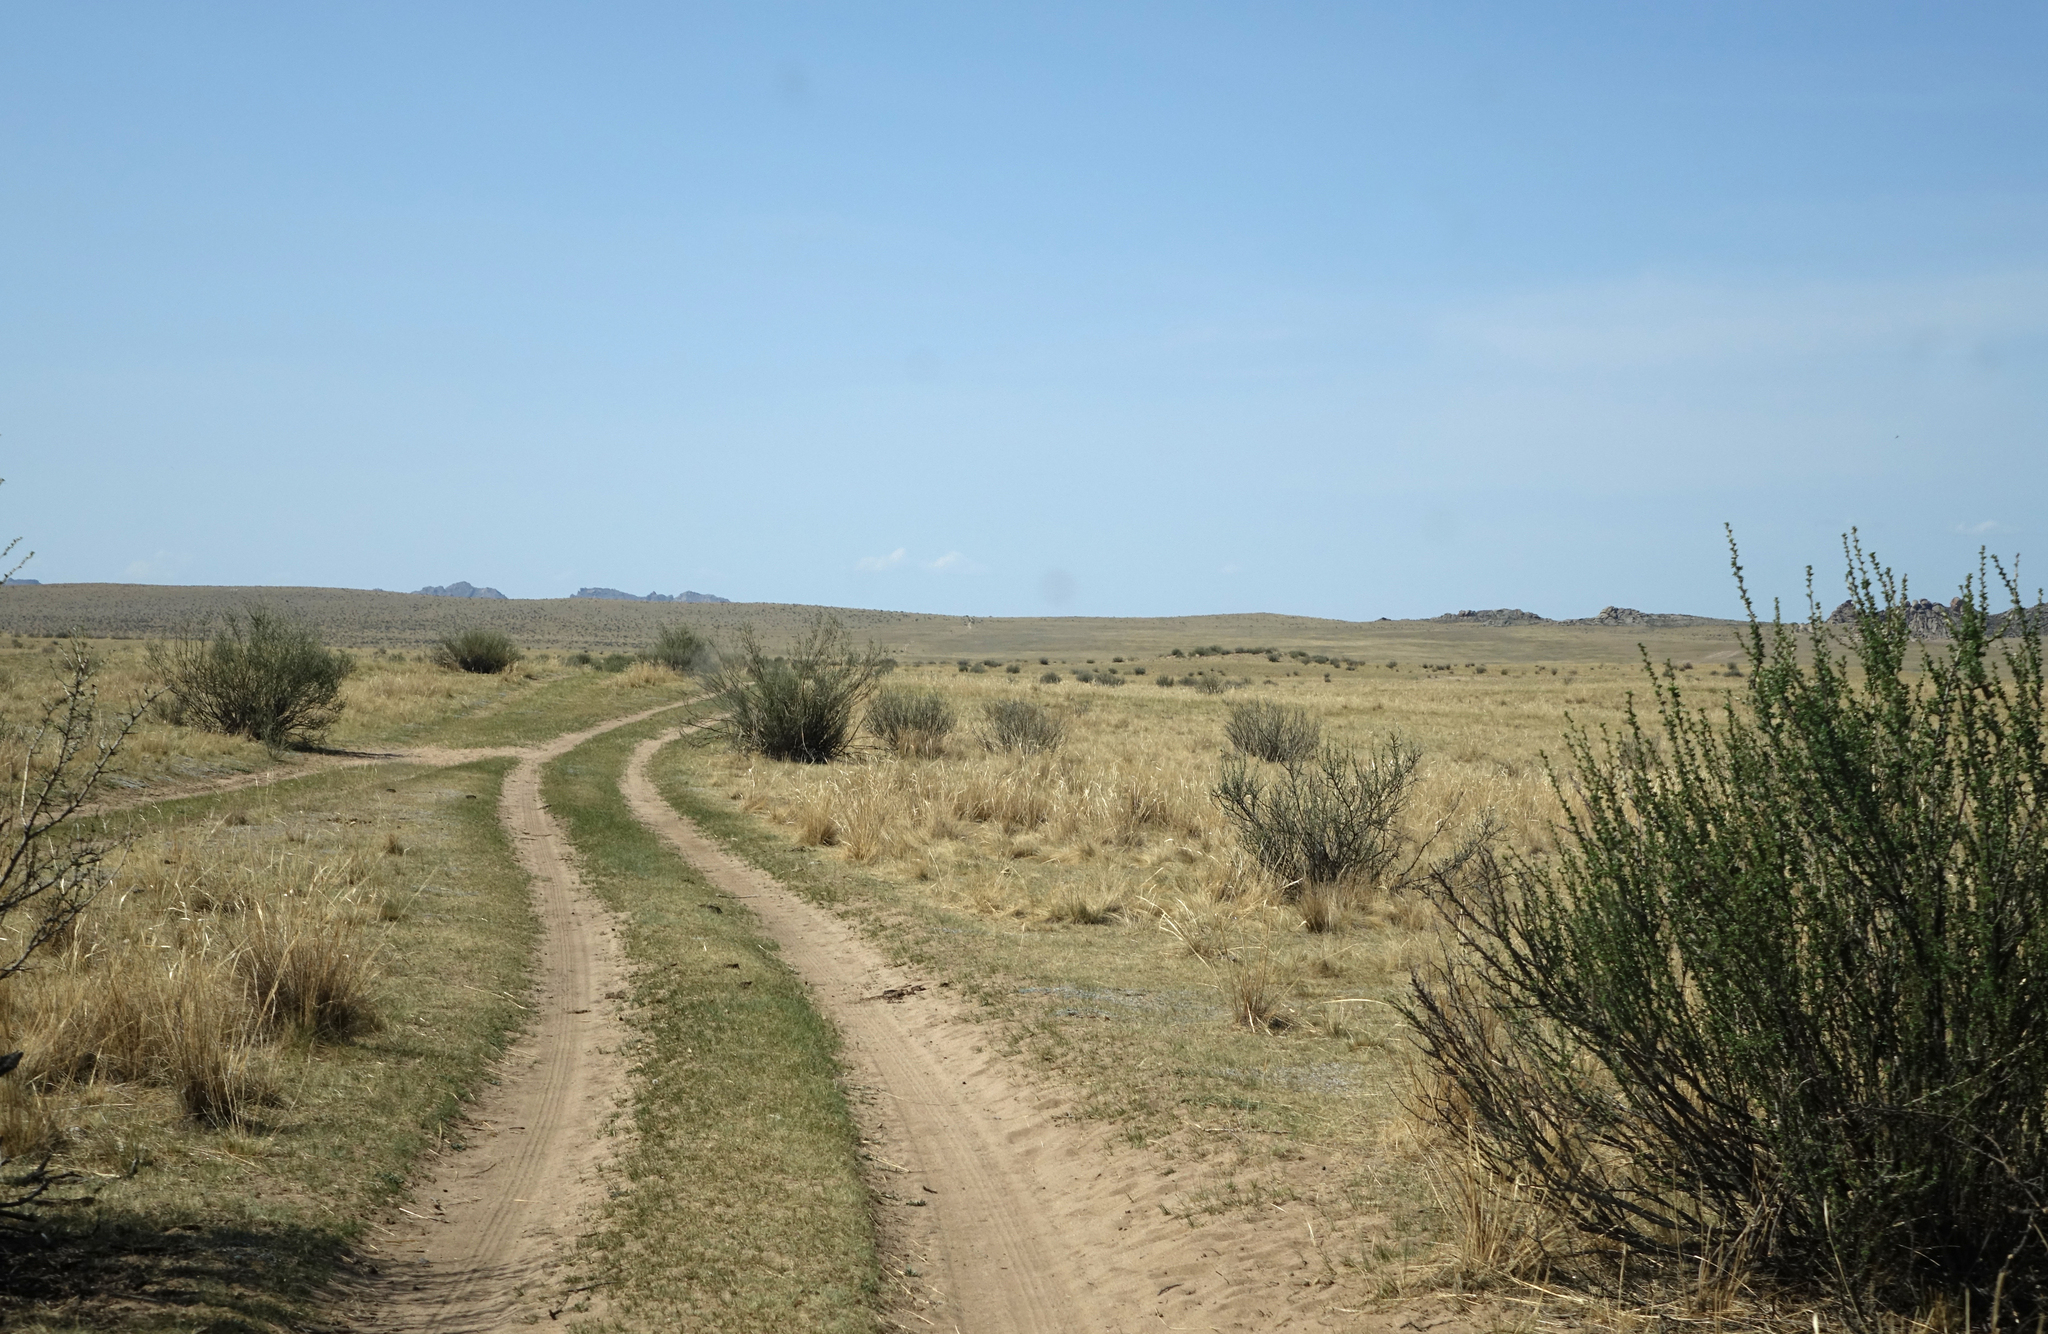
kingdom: Plantae
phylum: Tracheophyta
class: Magnoliopsida
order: Fabales
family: Fabaceae
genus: Caragana
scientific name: Caragana bungei
